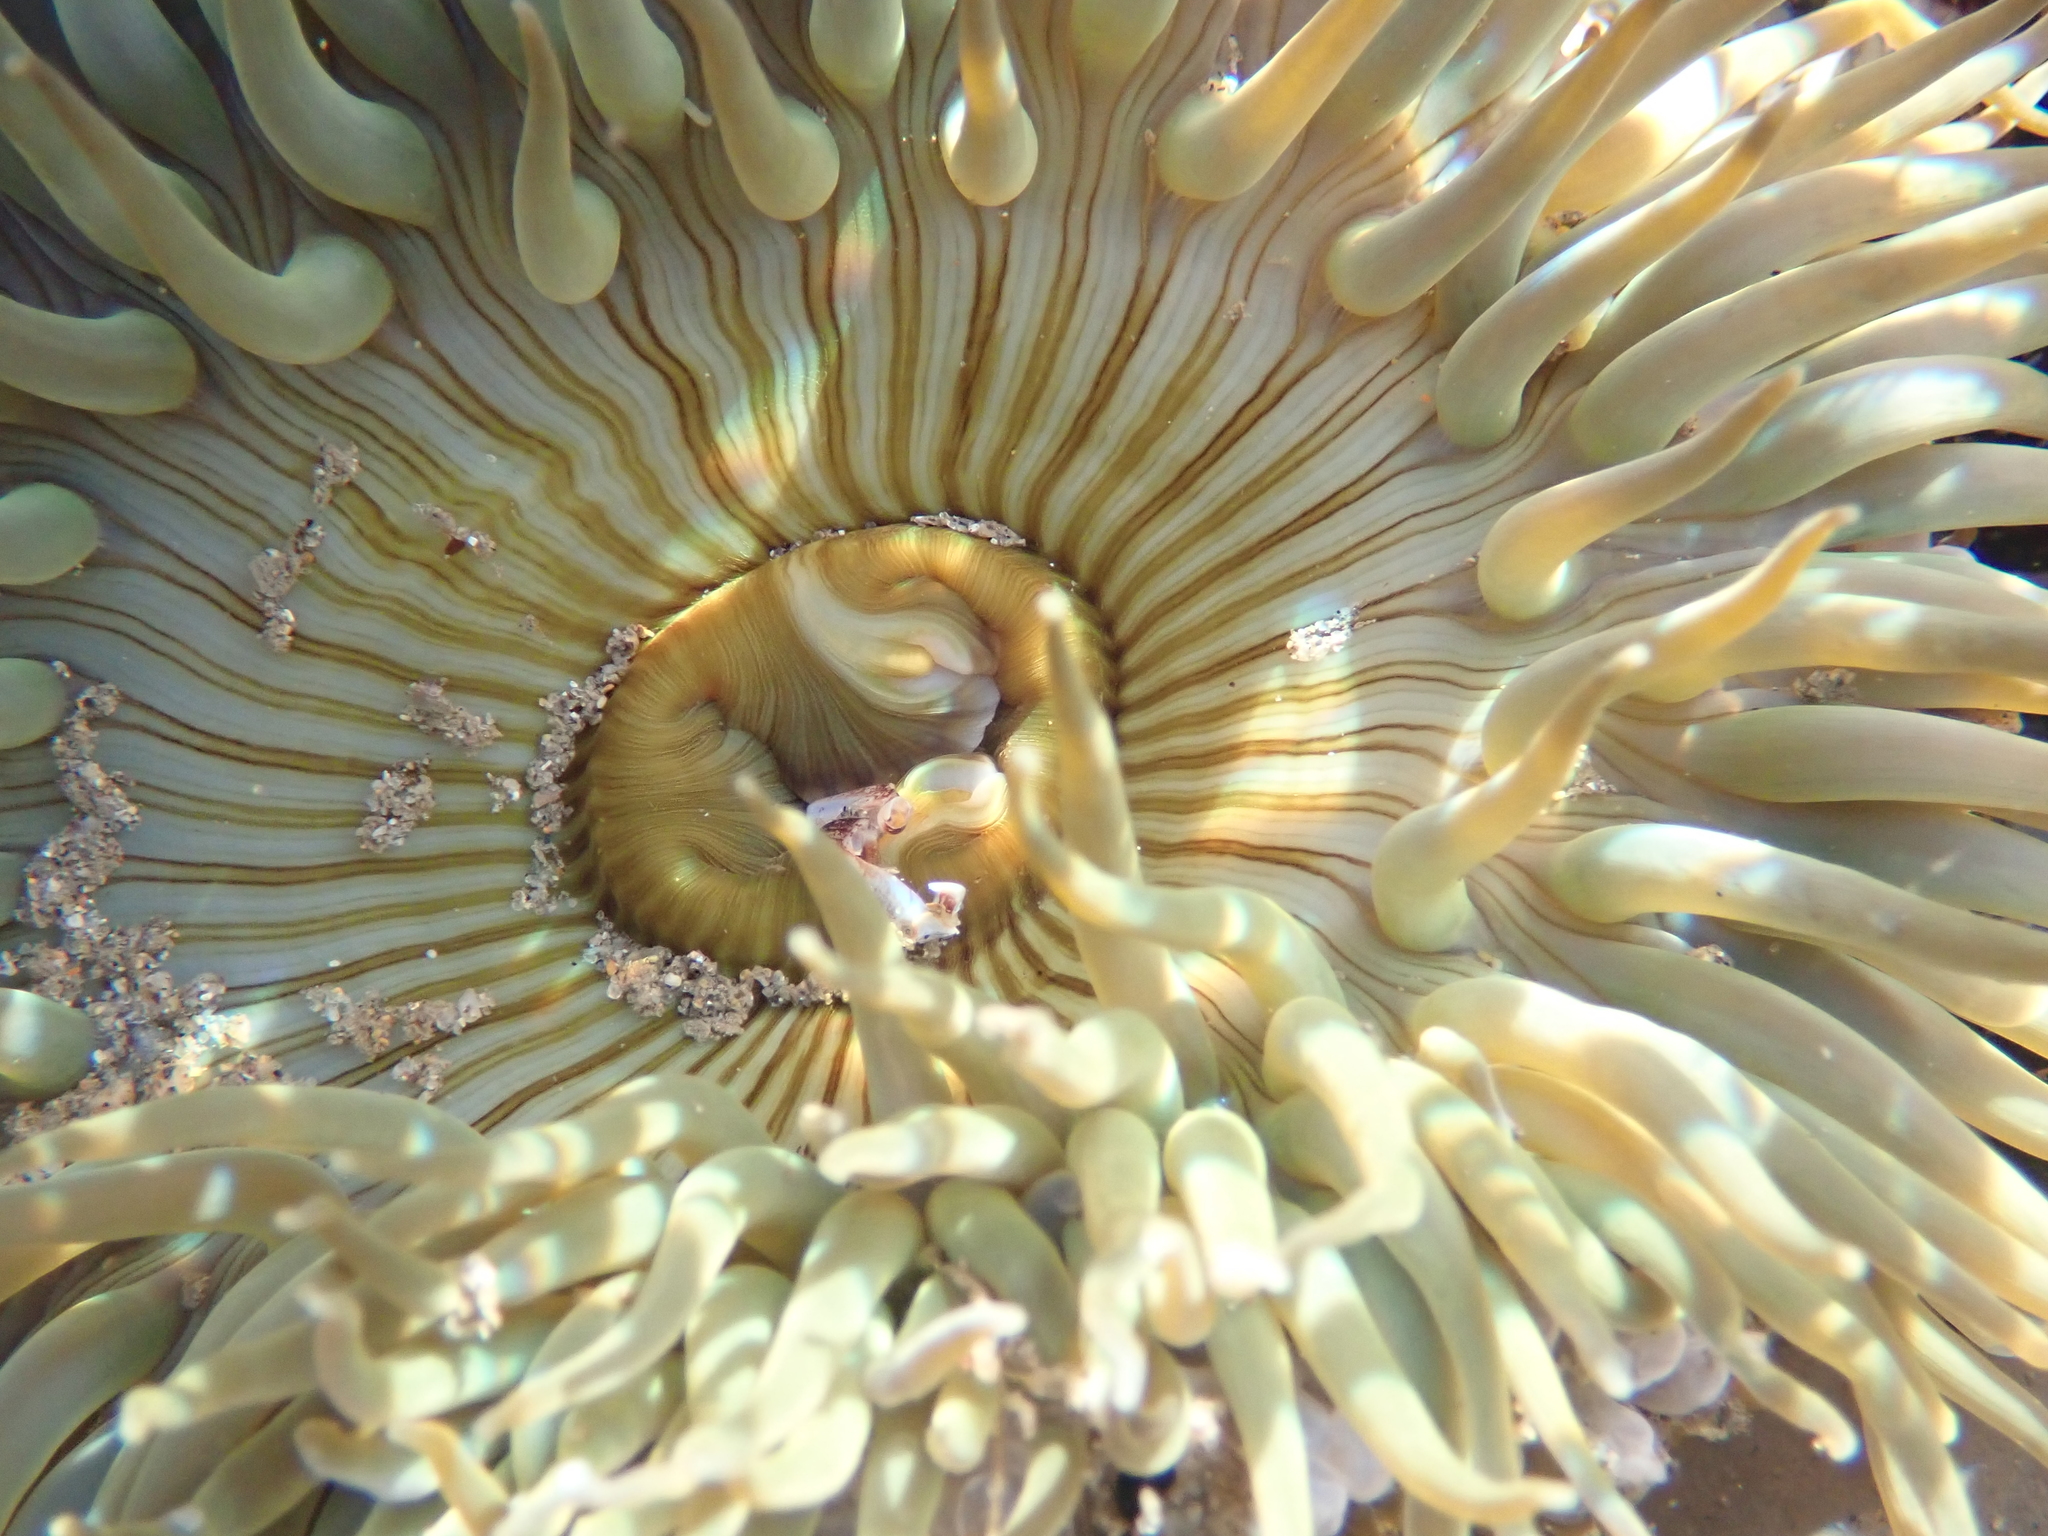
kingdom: Animalia
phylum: Cnidaria
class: Anthozoa
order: Actiniaria
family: Actiniidae
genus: Anthopleura
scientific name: Anthopleura sola
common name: Sun anemone
